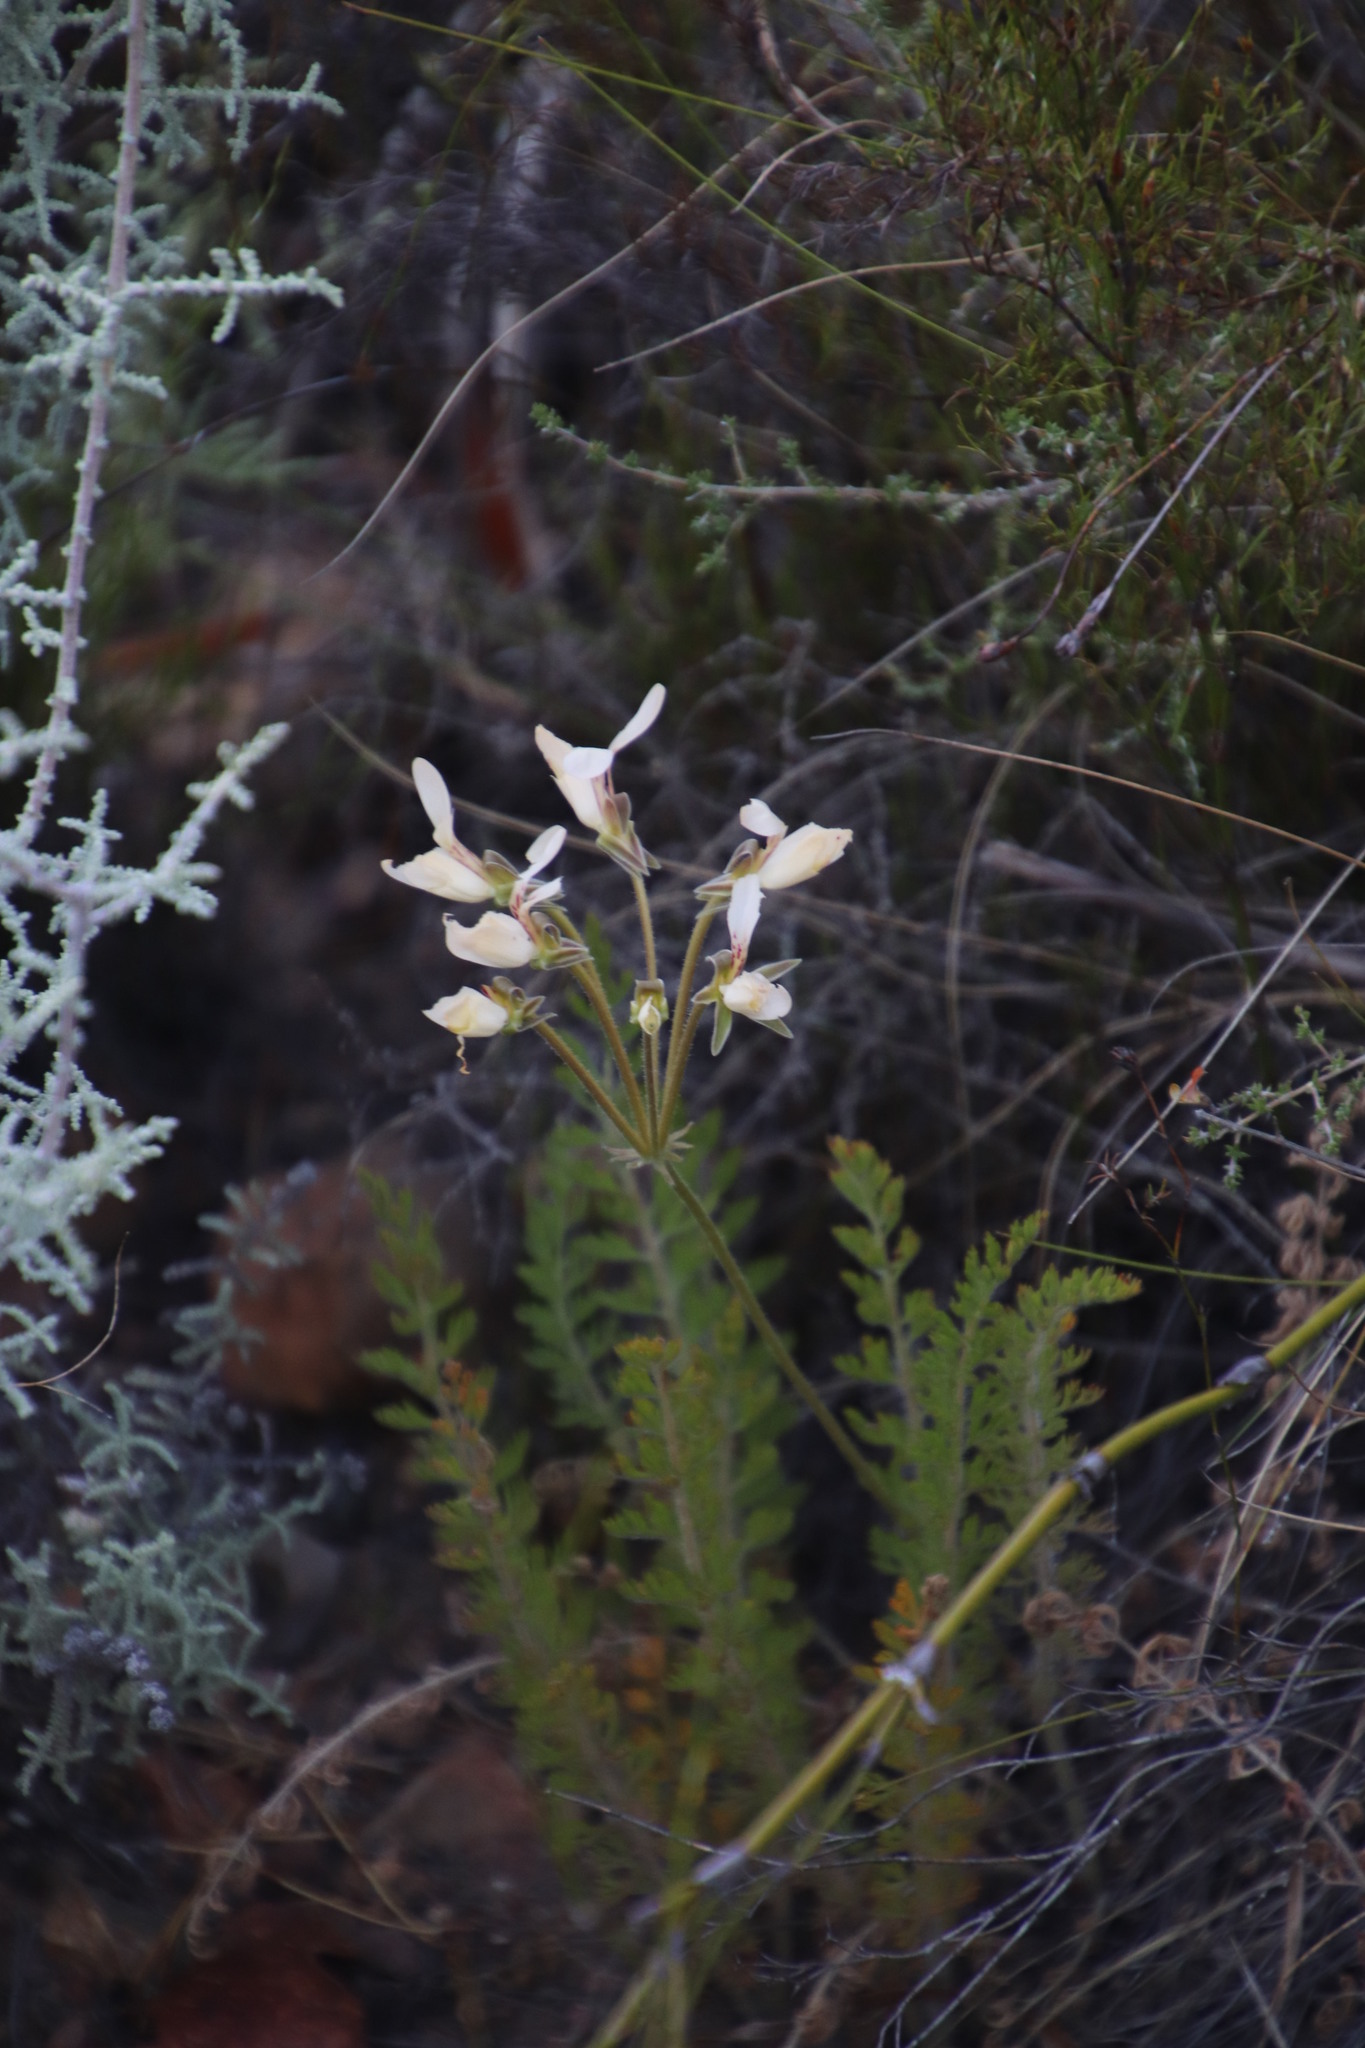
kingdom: Plantae
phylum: Tracheophyta
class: Magnoliopsida
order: Geraniales
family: Geraniaceae
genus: Pelargonium
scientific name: Pelargonium rapaceum
